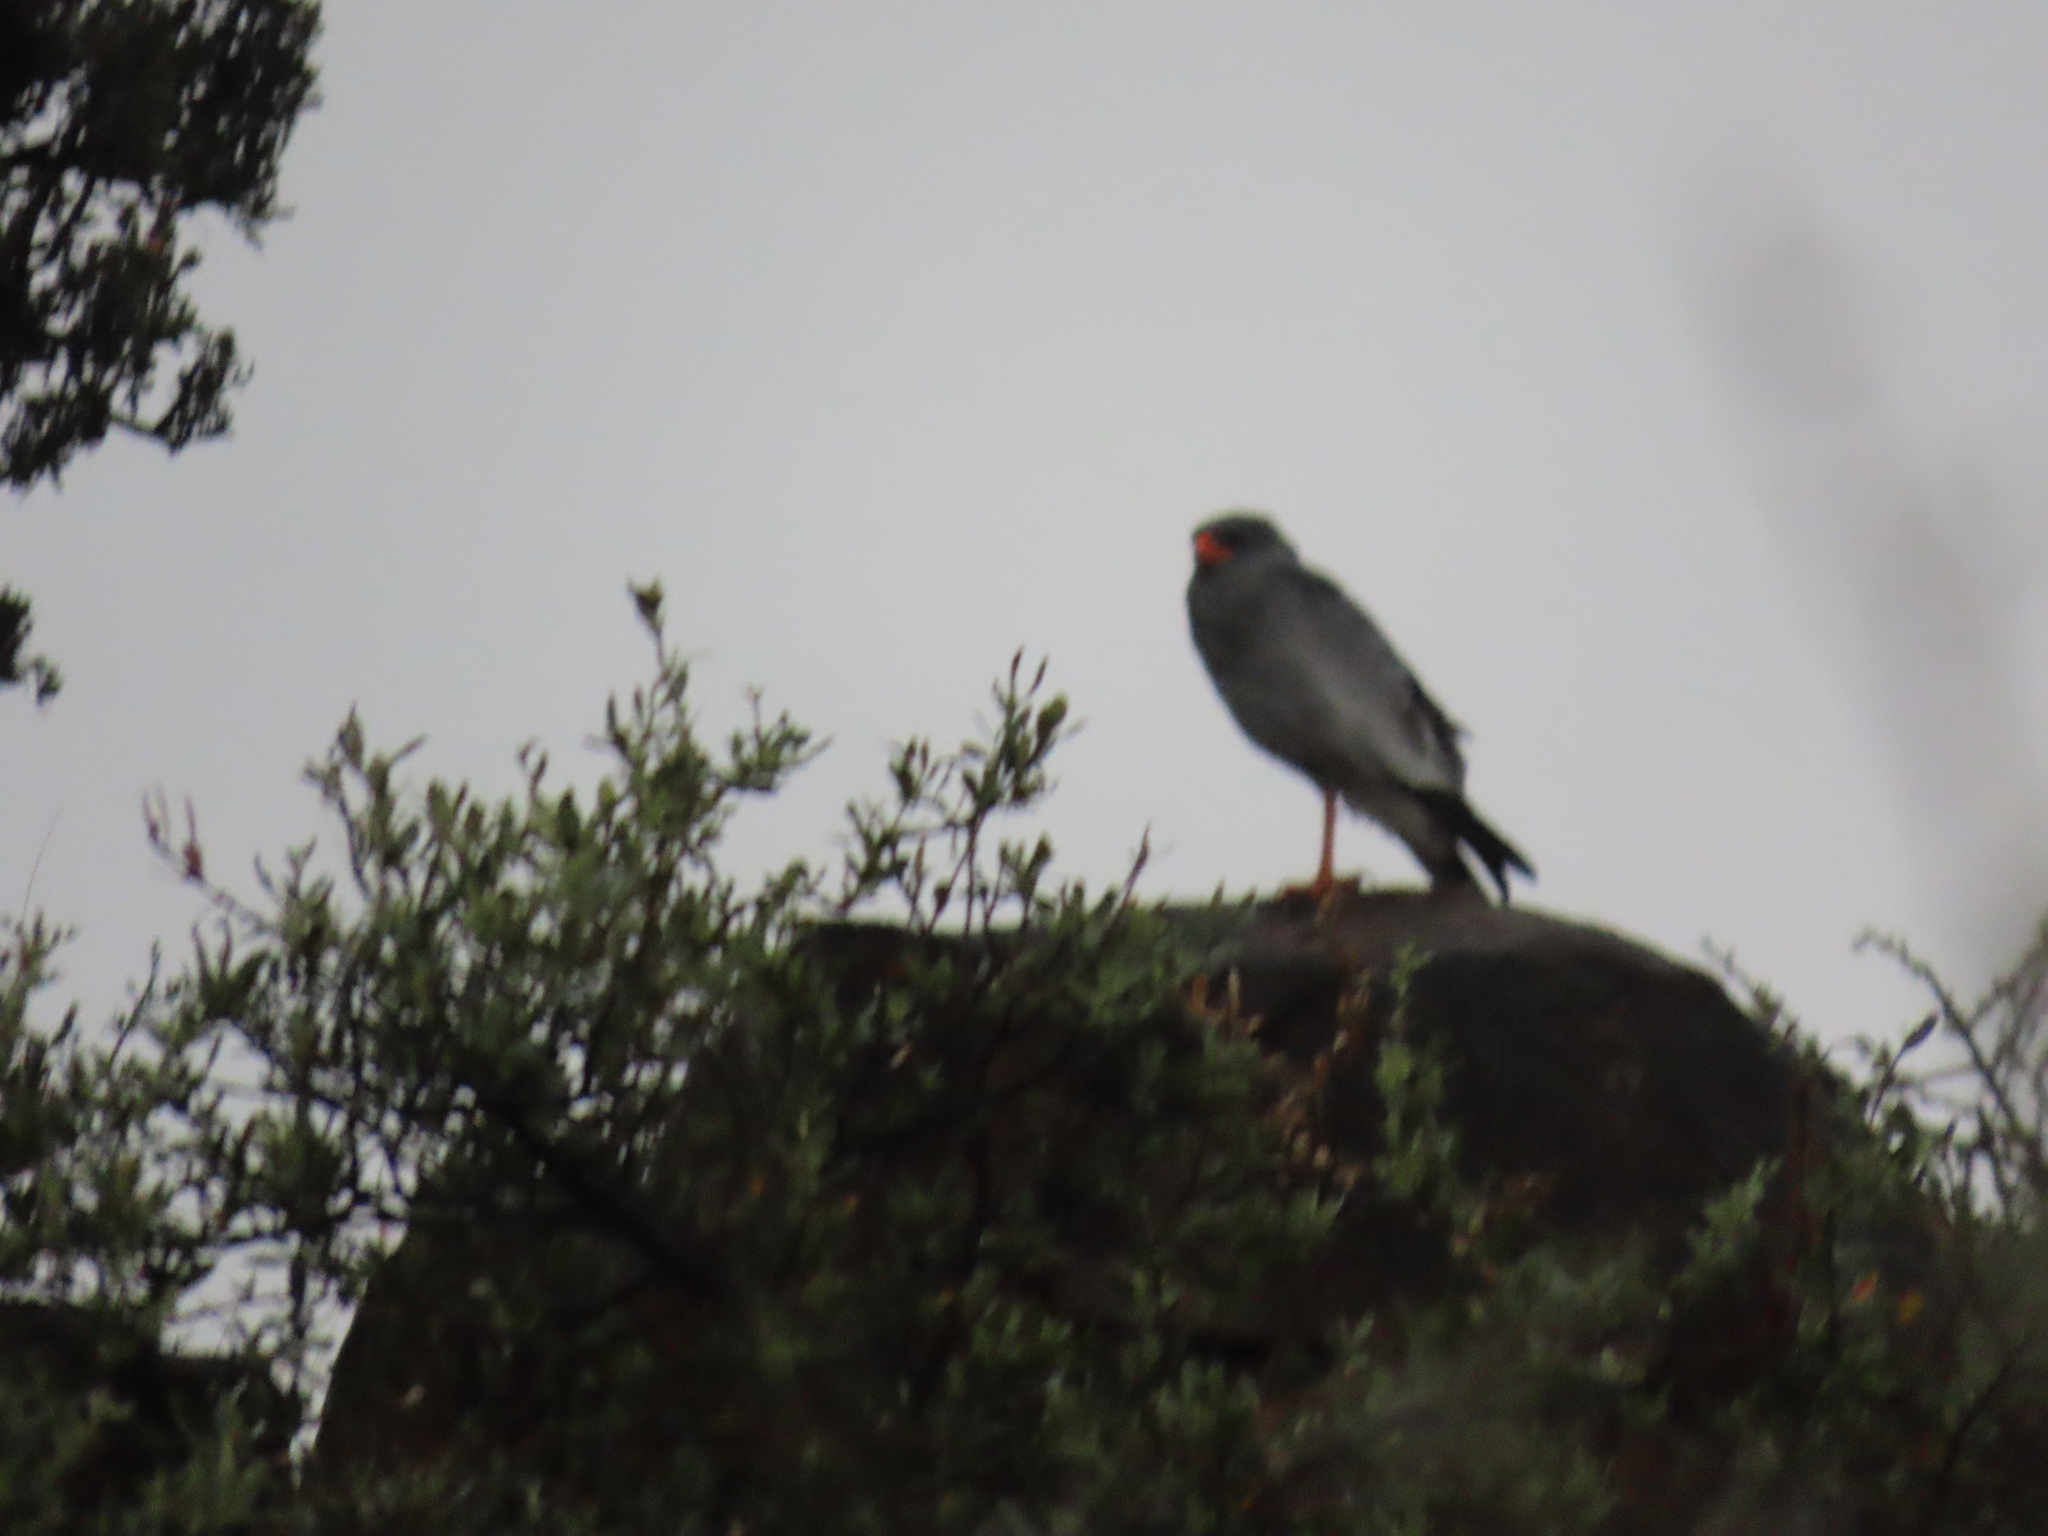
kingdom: Animalia
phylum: Chordata
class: Aves
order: Accipitriformes
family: Accipitridae
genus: Melierax
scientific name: Melierax canorus
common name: Pale chanting-goshawk
